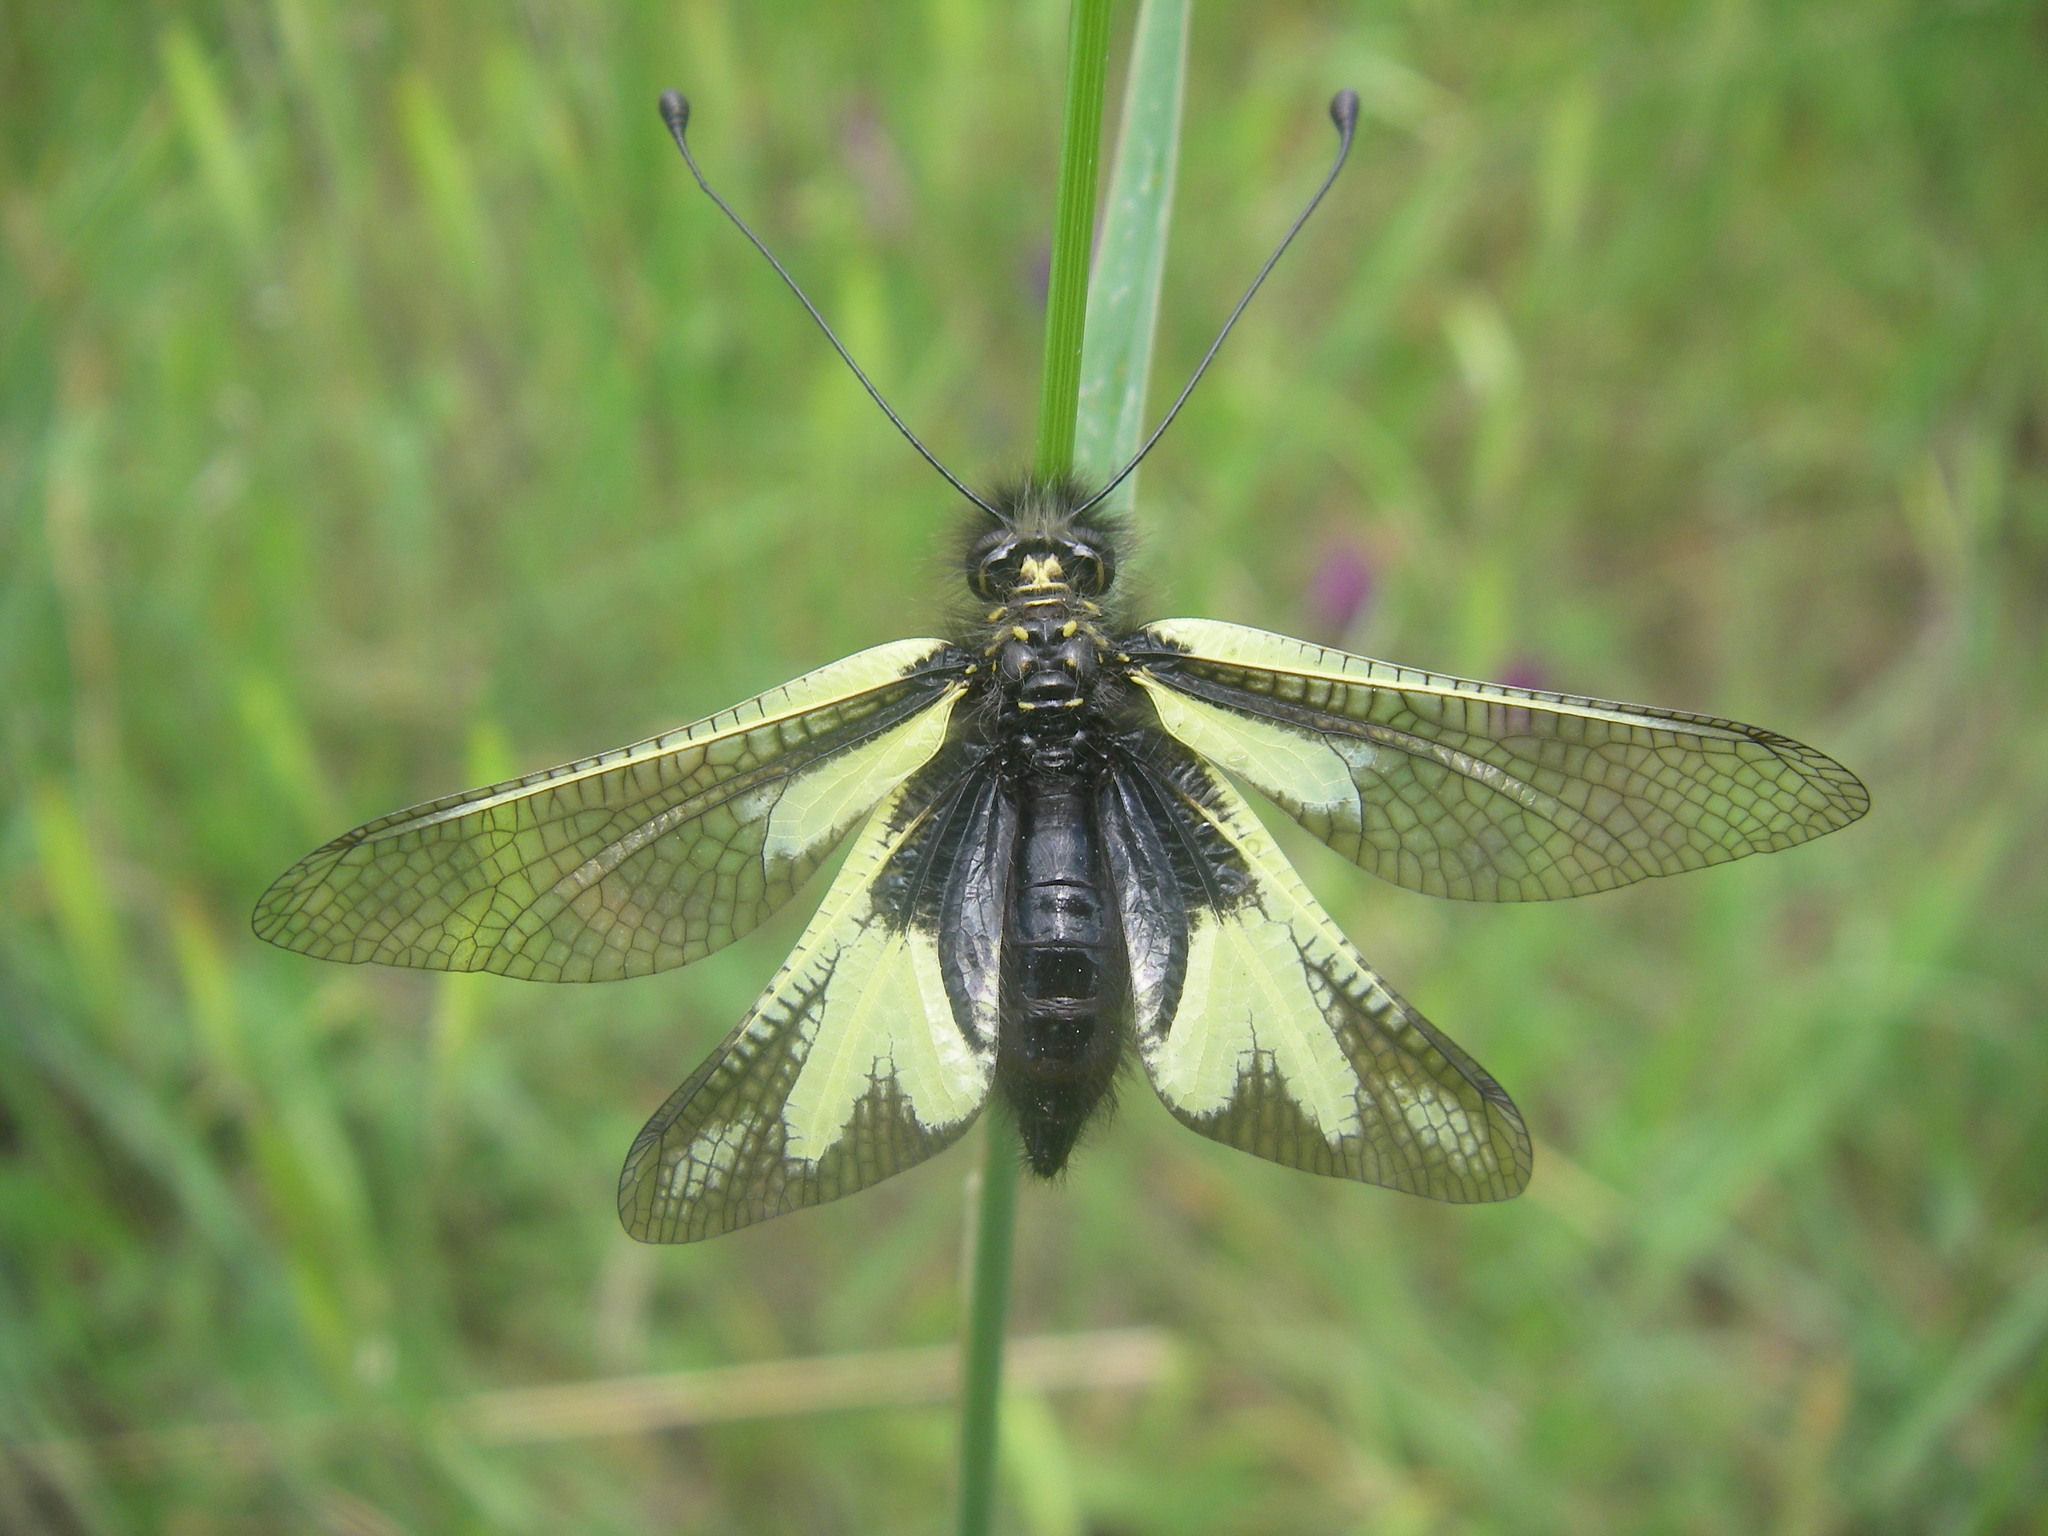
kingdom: Animalia
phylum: Arthropoda
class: Insecta
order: Neuroptera
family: Ascalaphidae
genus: Libelloides
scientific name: Libelloides coccajus
